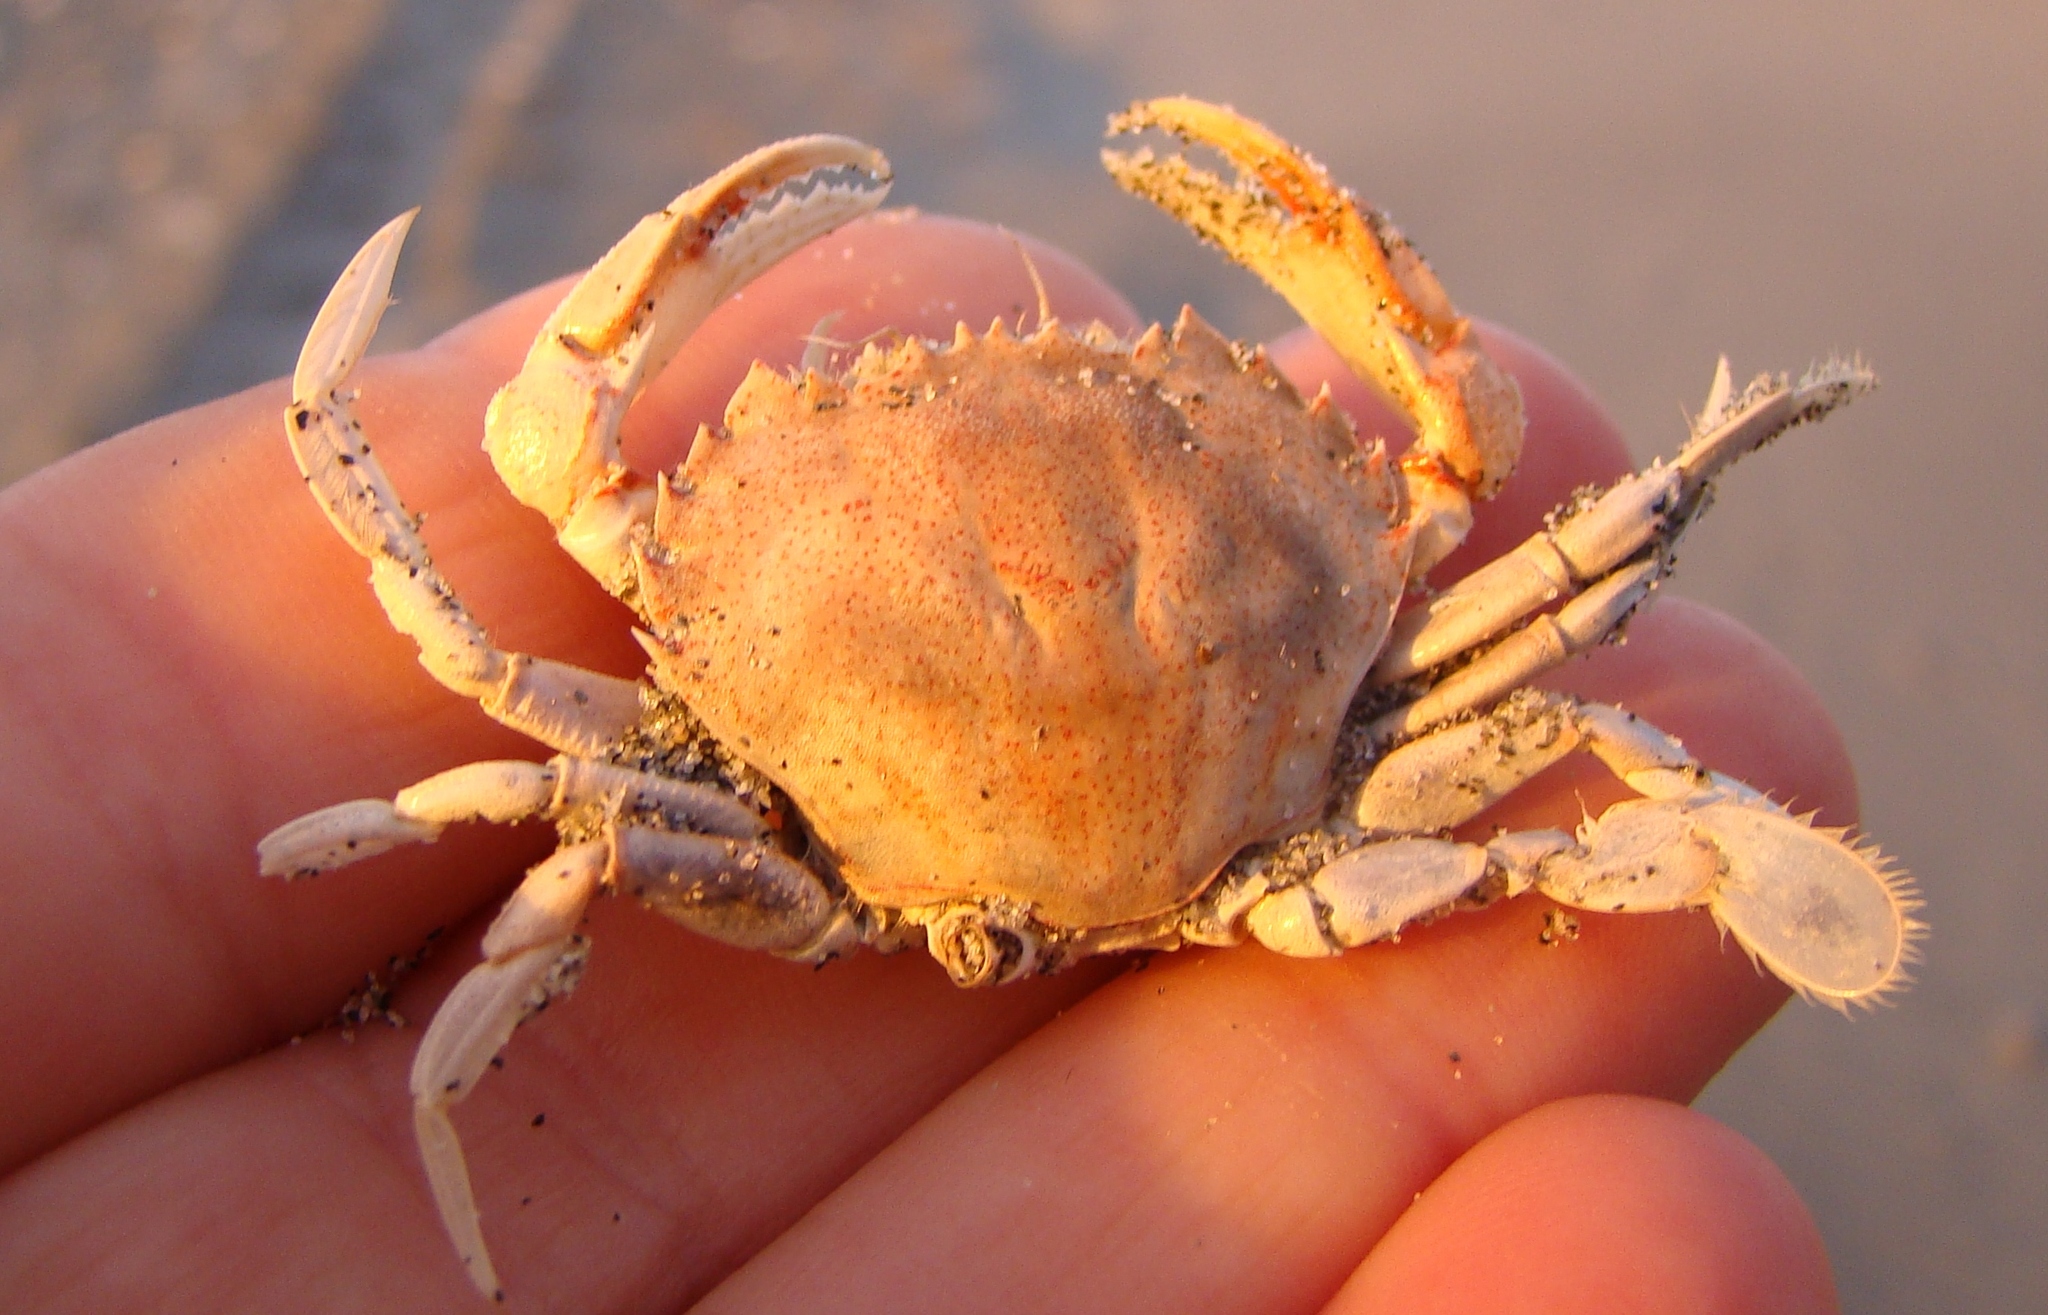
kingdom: Animalia
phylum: Arthropoda
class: Malacostraca
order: Decapoda
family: Ovalipidae
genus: Ovalipes
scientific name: Ovalipes catharus
